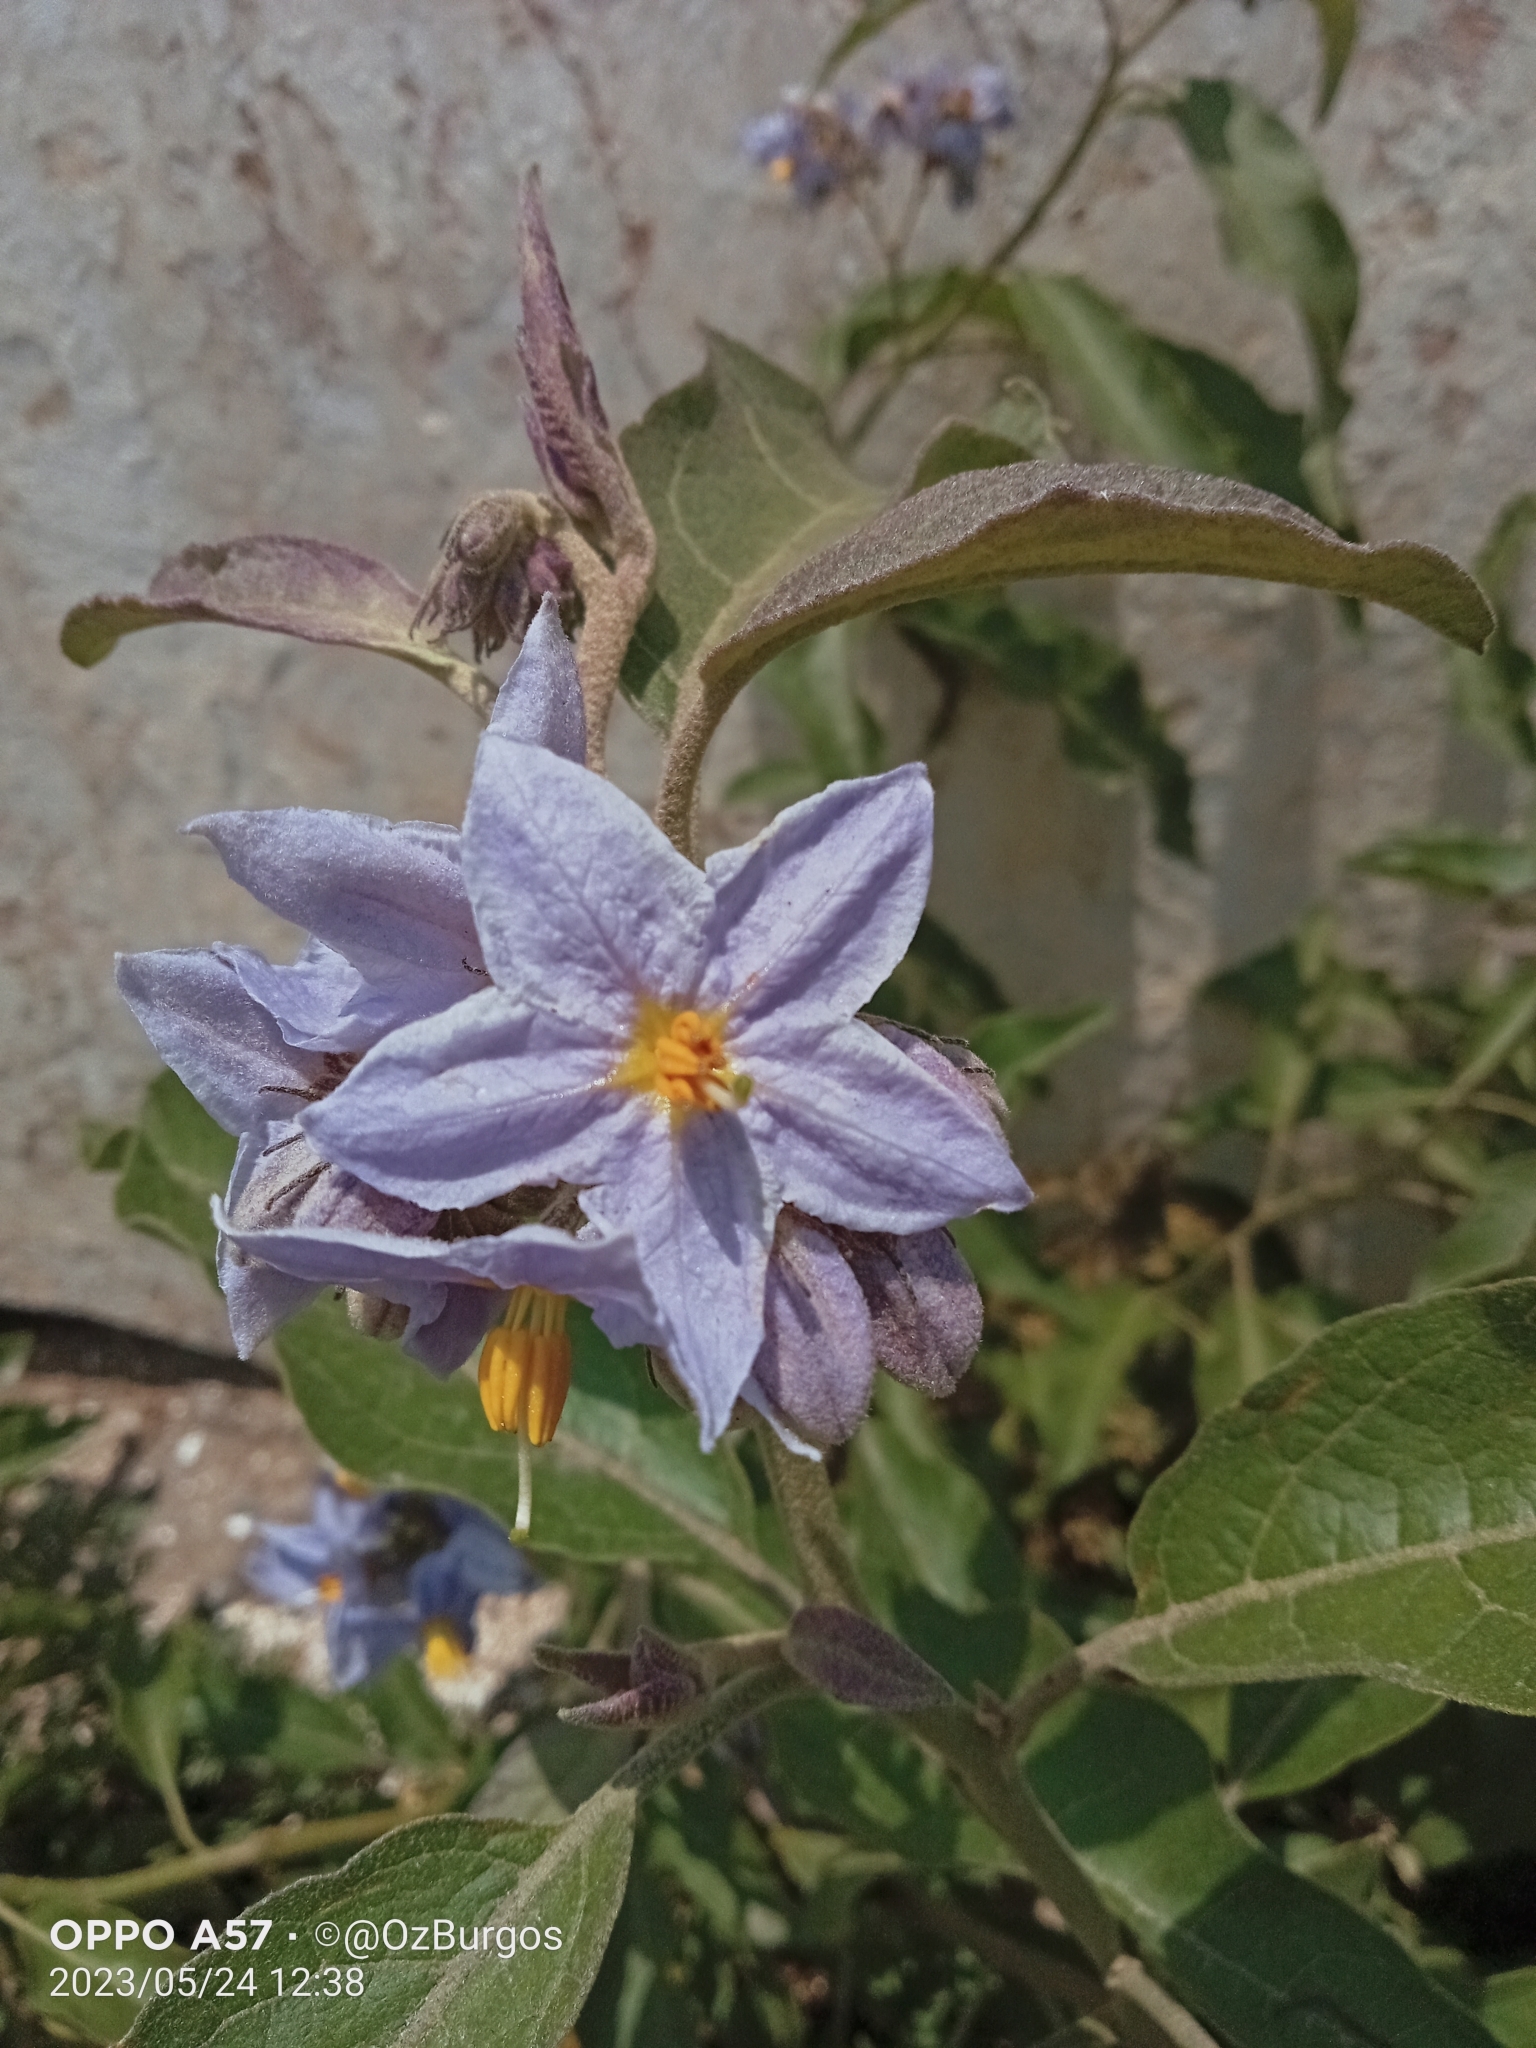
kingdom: Plantae
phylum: Tracheophyta
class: Magnoliopsida
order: Solanales
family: Solanaceae
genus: Solanum
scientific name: Solanum lanceolatum
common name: Orangeberry nightshade
